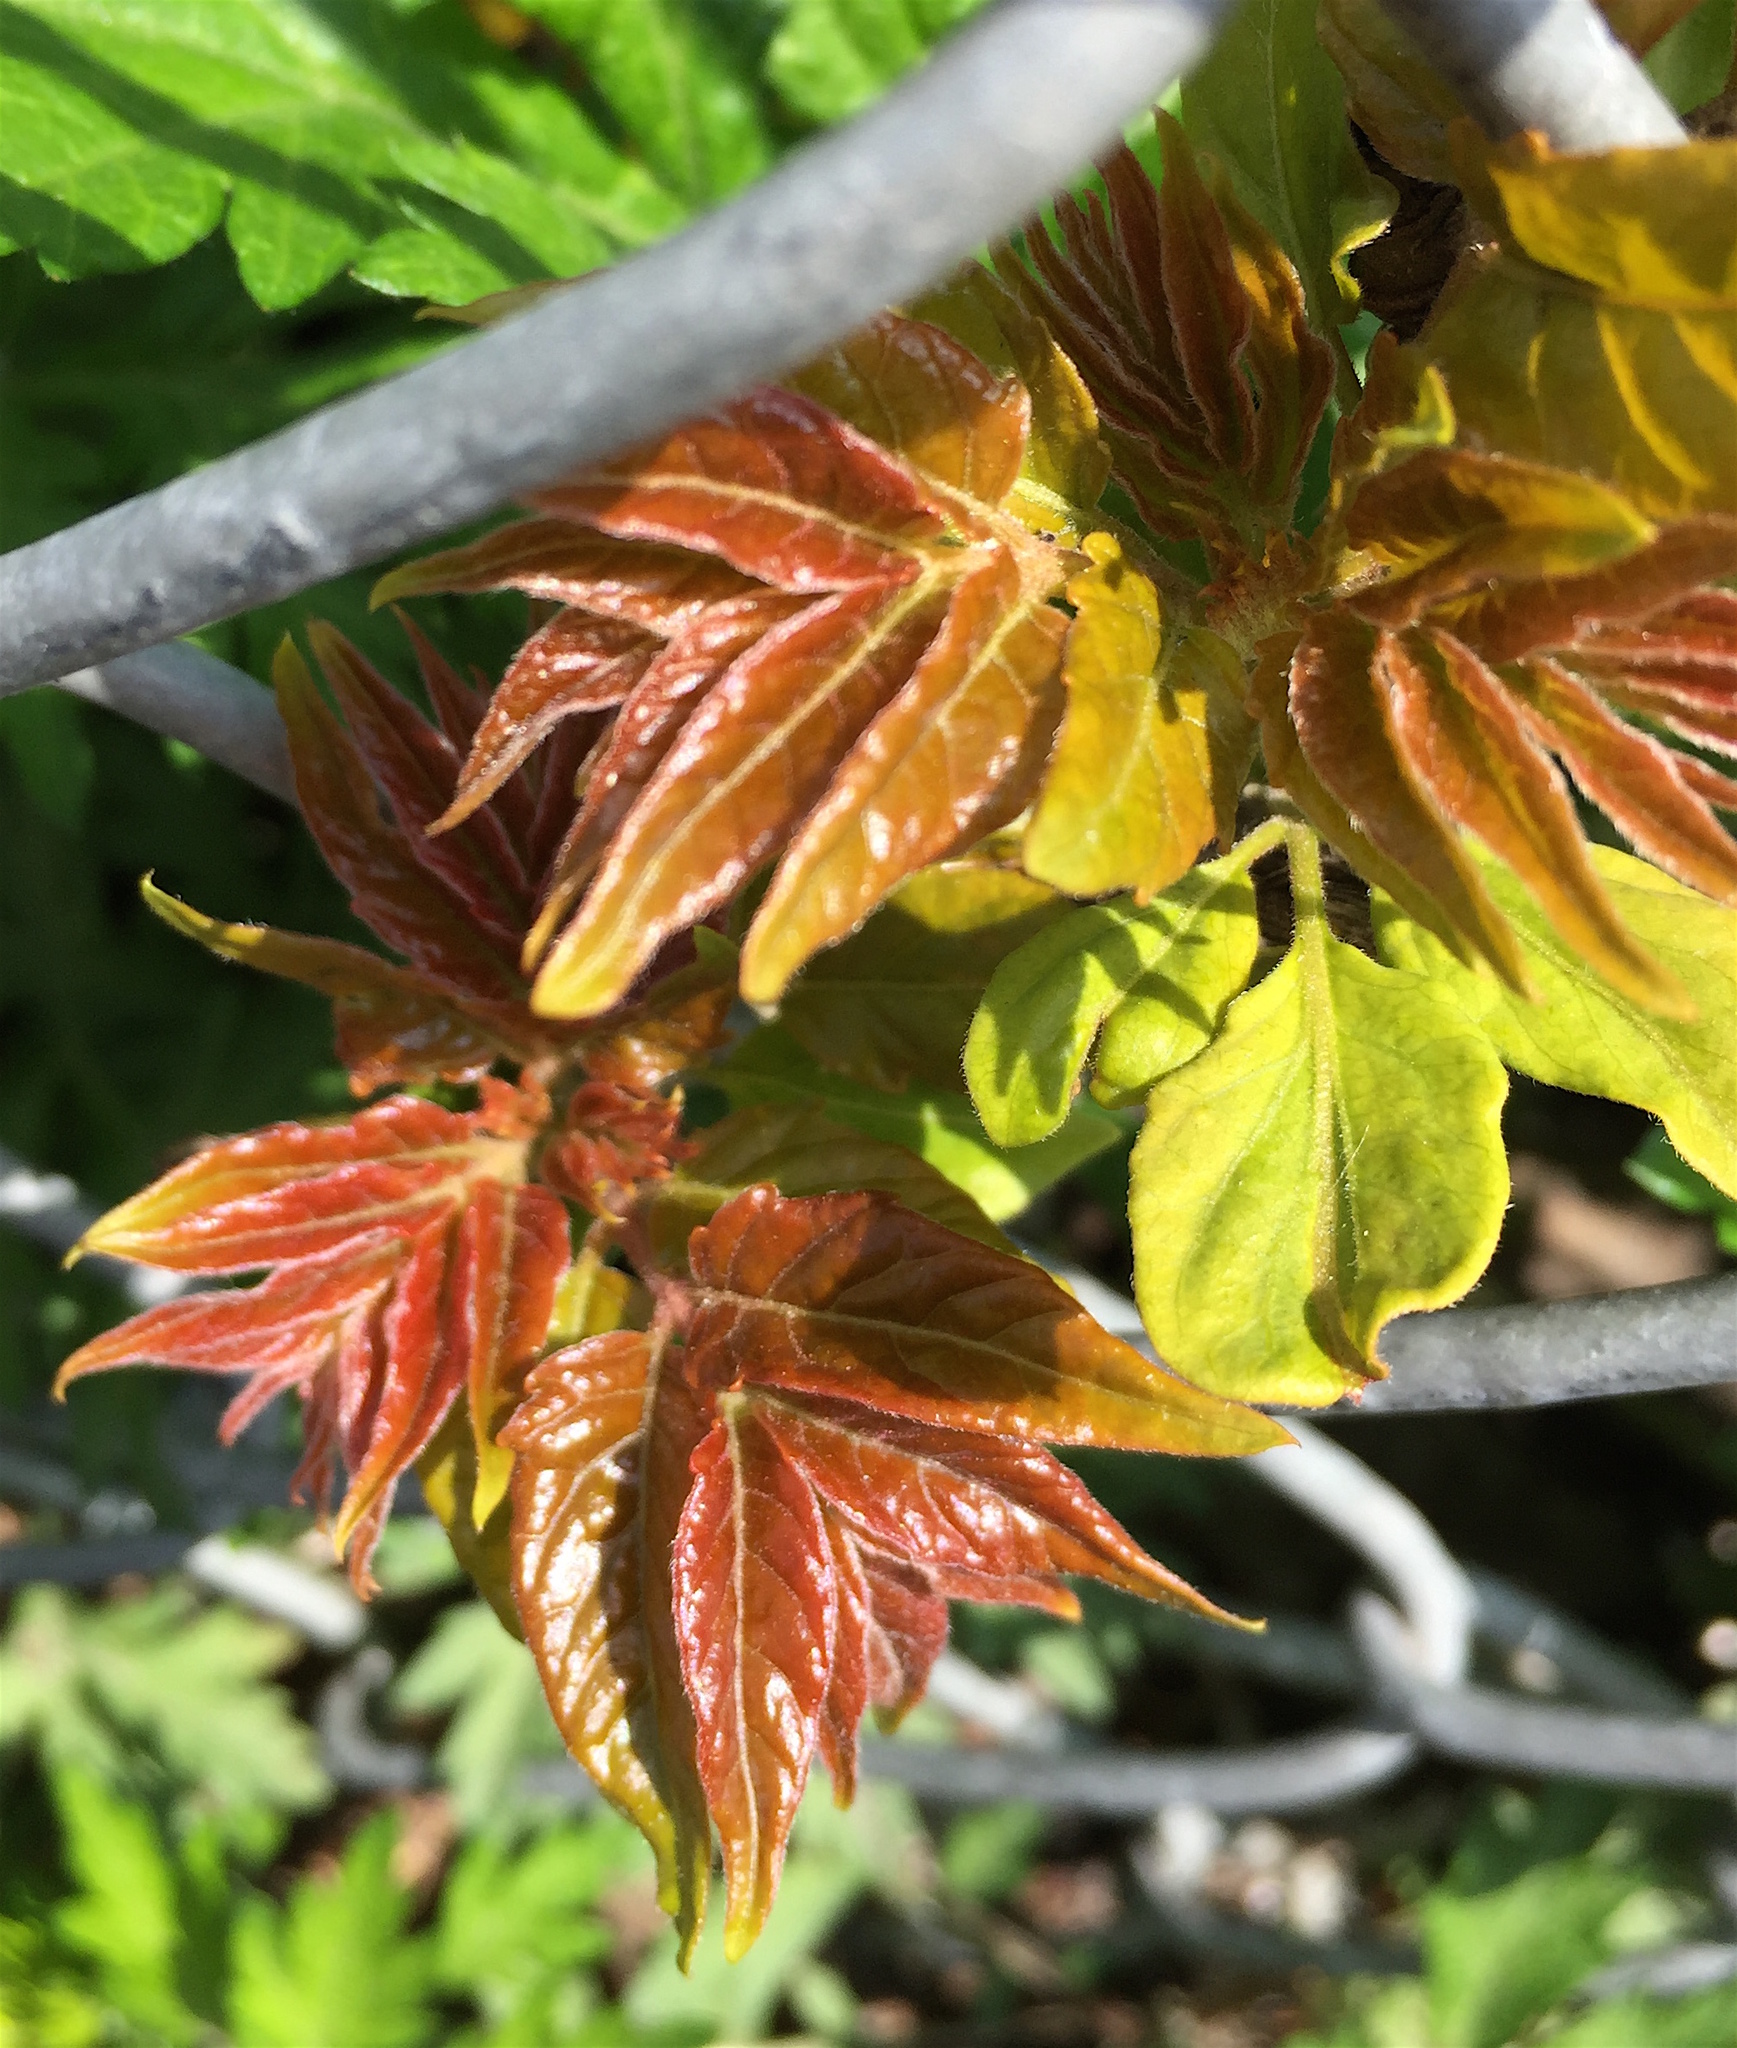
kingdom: Plantae
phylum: Tracheophyta
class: Magnoliopsida
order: Sapindales
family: Simaroubaceae
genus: Ailanthus
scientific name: Ailanthus altissima
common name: Tree-of-heaven
